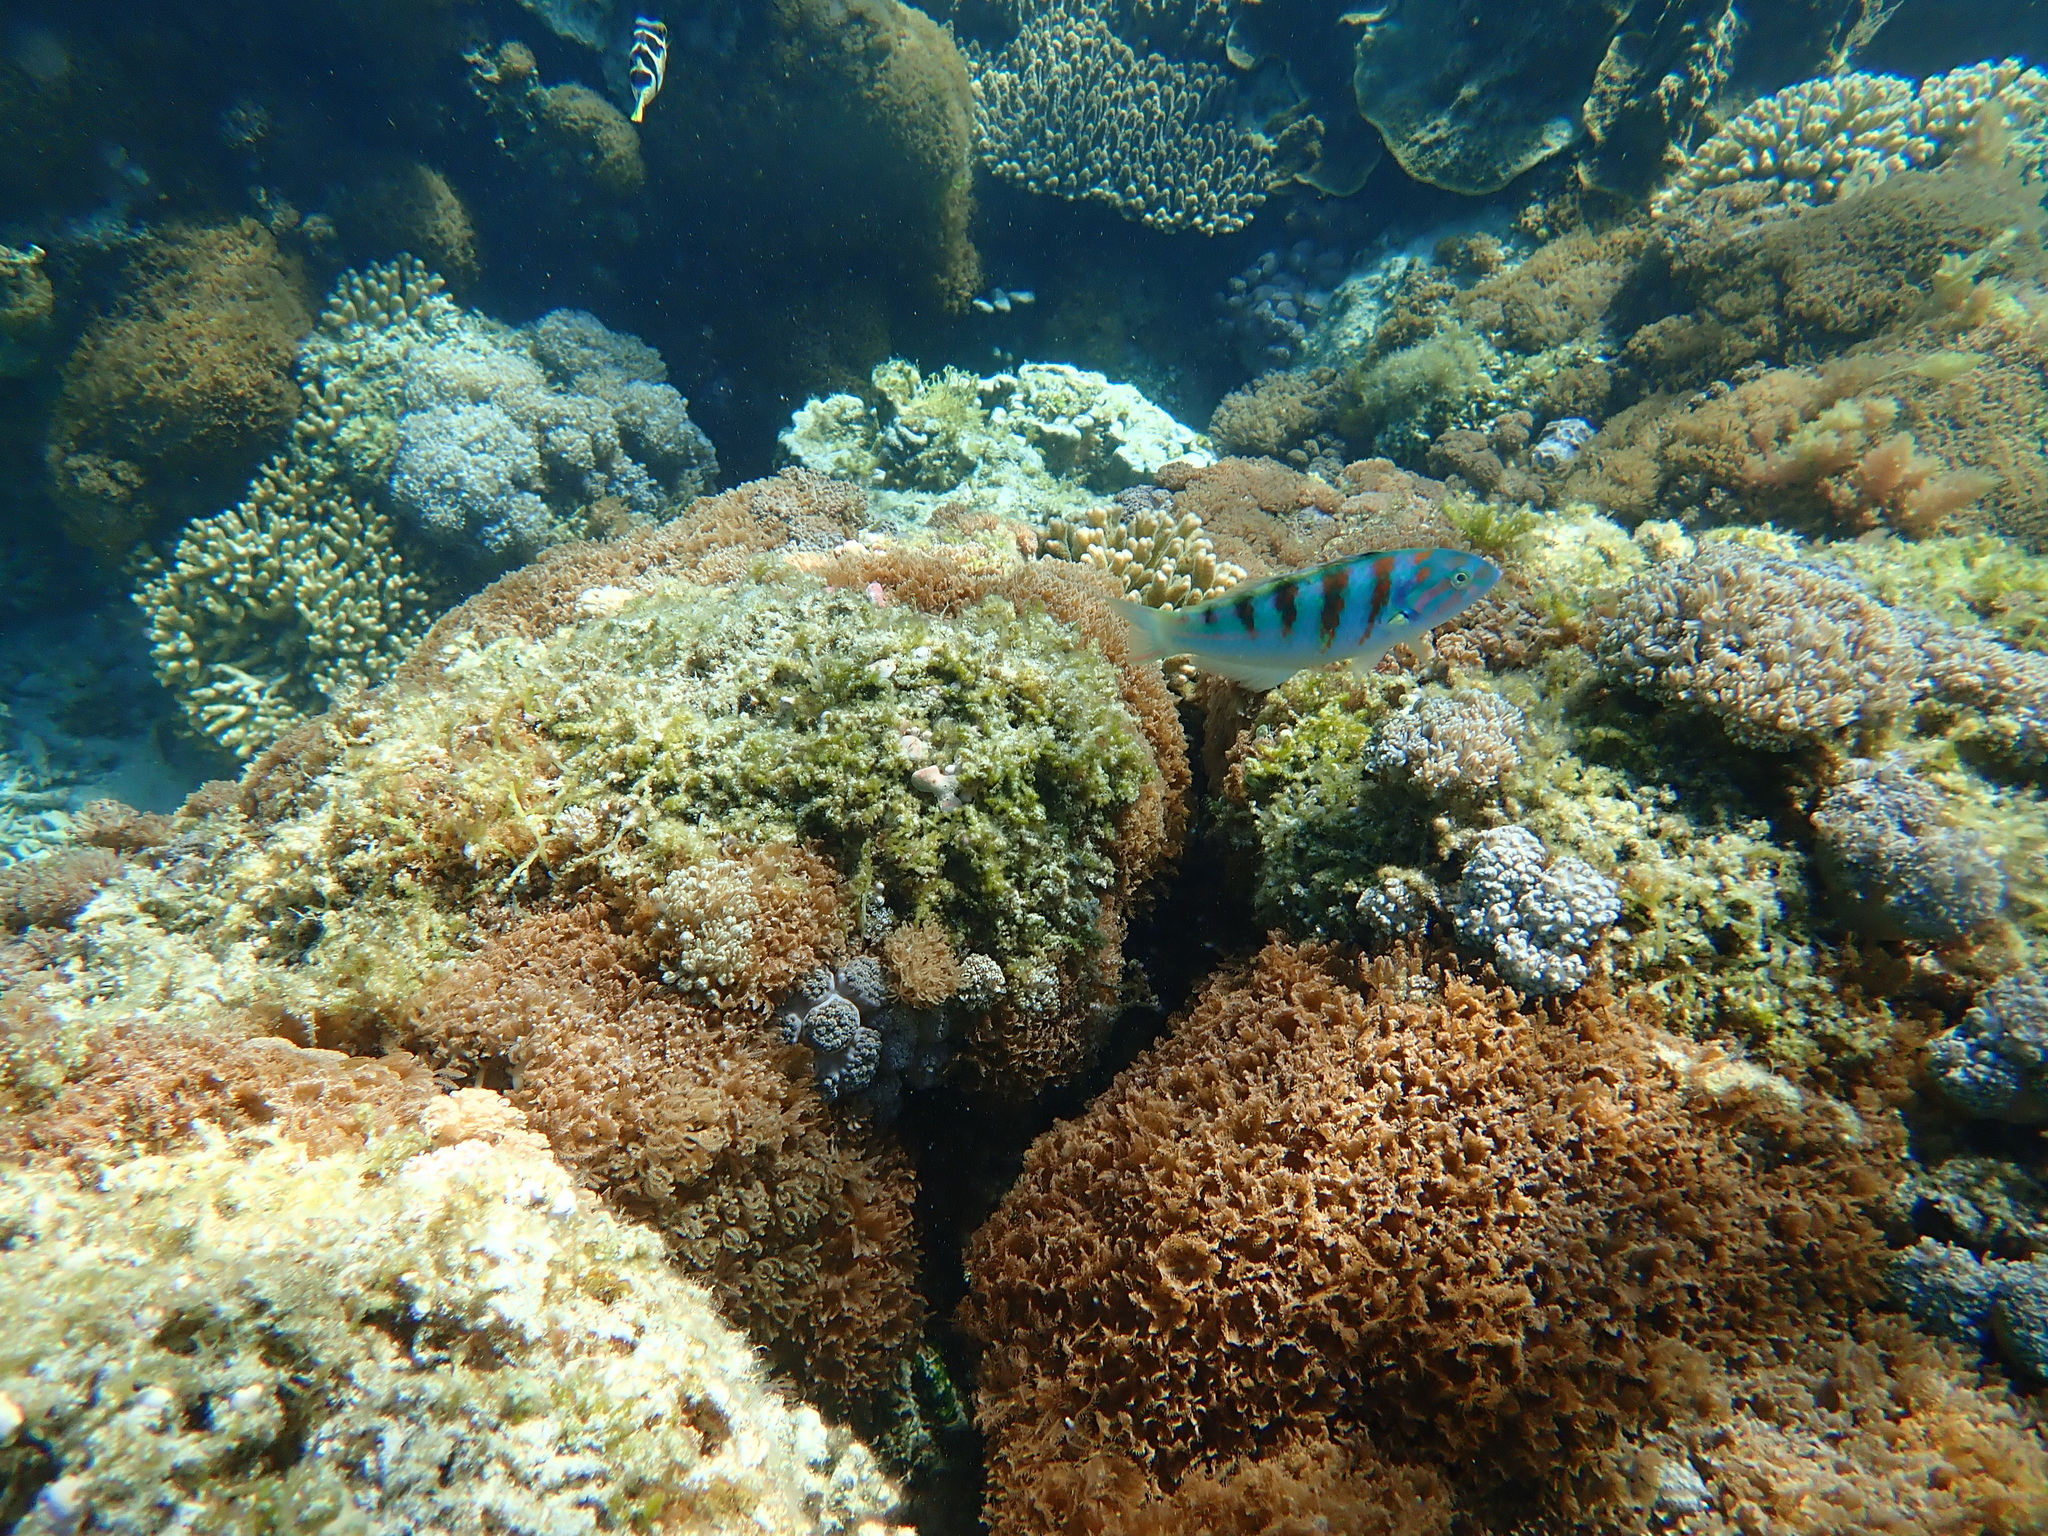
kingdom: Animalia
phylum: Chordata
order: Perciformes
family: Labridae
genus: Thalassoma
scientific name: Thalassoma hardwicke
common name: Sixbar wrasse
